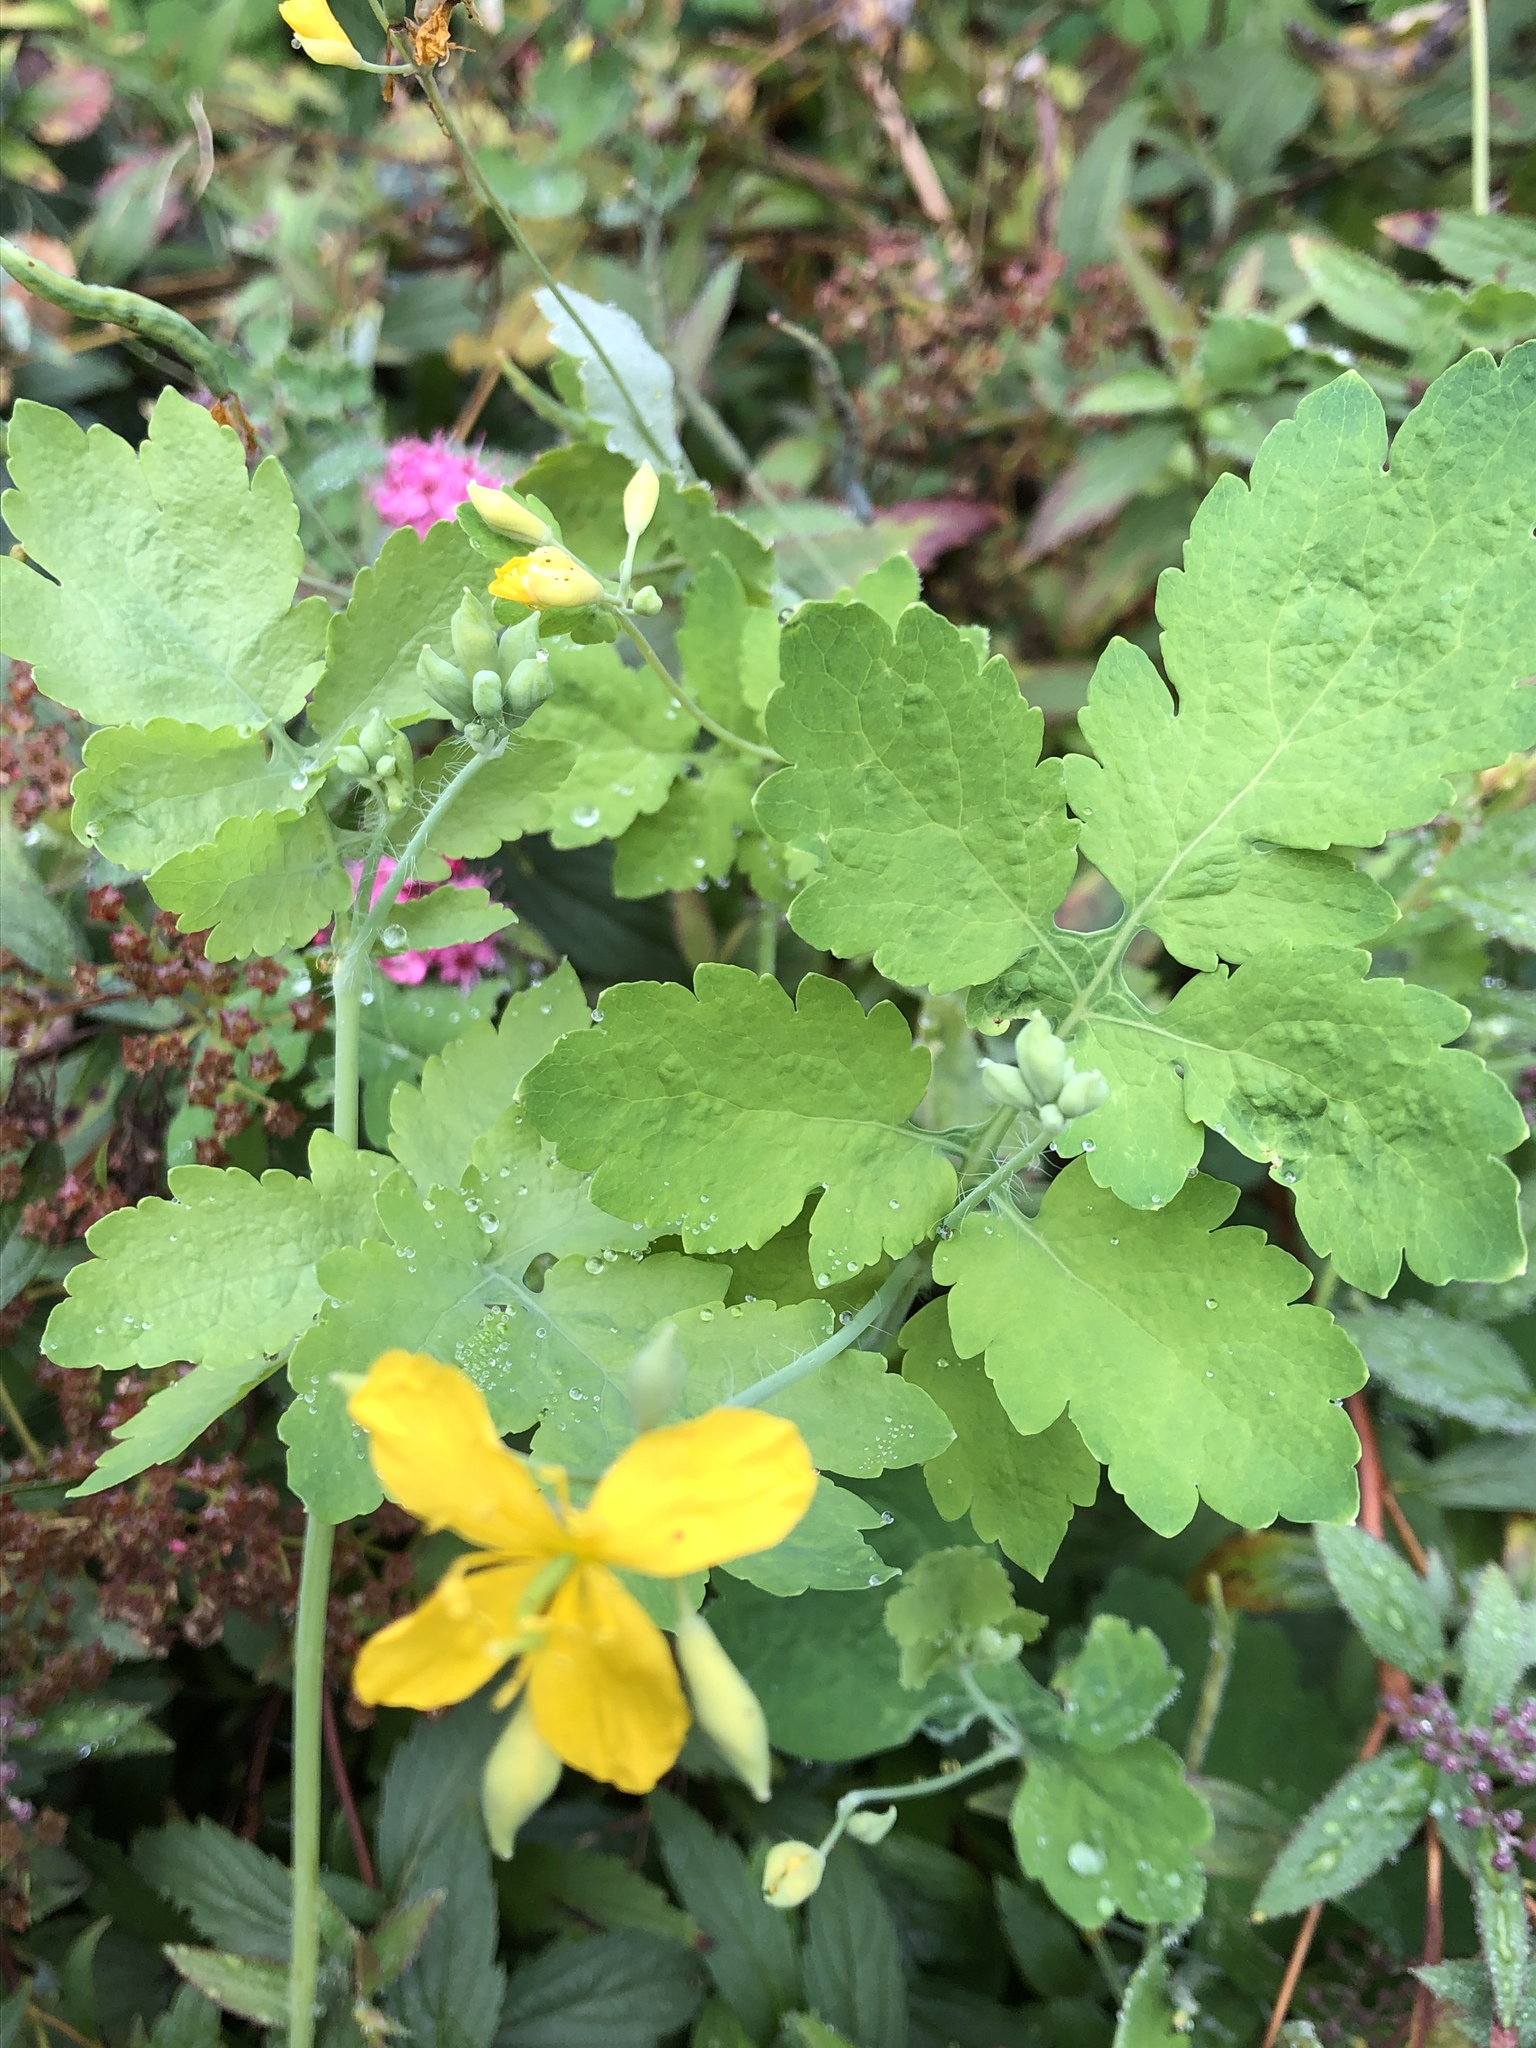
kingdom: Plantae
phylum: Tracheophyta
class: Magnoliopsida
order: Ranunculales
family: Papaveraceae
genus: Chelidonium
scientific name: Chelidonium majus
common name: Greater celandine
